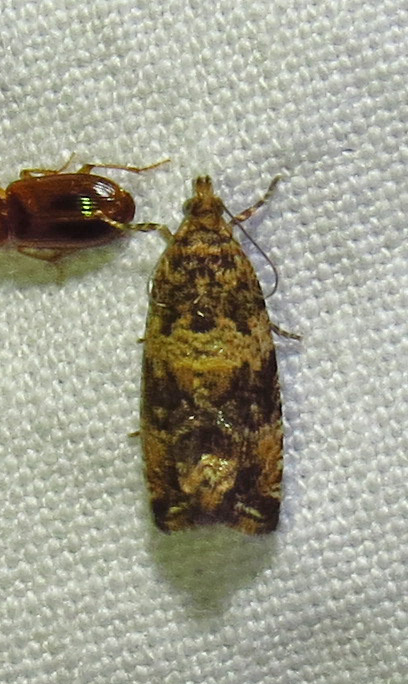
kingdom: Animalia
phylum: Arthropoda
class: Insecta
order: Lepidoptera
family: Tortricidae
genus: Celypha
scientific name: Celypha cespitana
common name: Thyme marble
